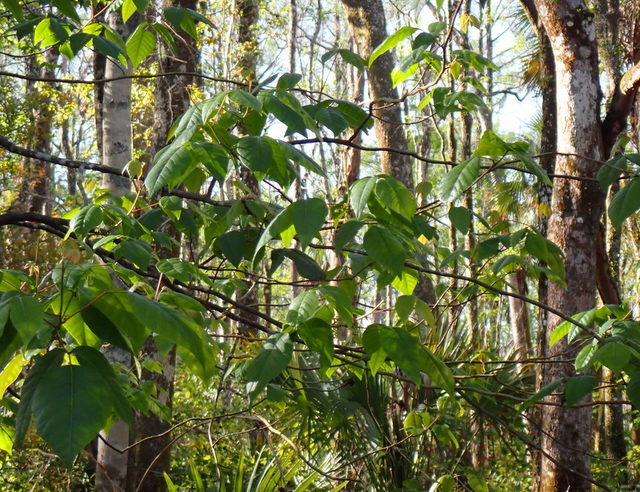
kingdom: Plantae
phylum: Tracheophyta
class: Magnoliopsida
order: Sapindales
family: Anacardiaceae
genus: Toxicodendron
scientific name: Toxicodendron radicans
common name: Poison ivy
